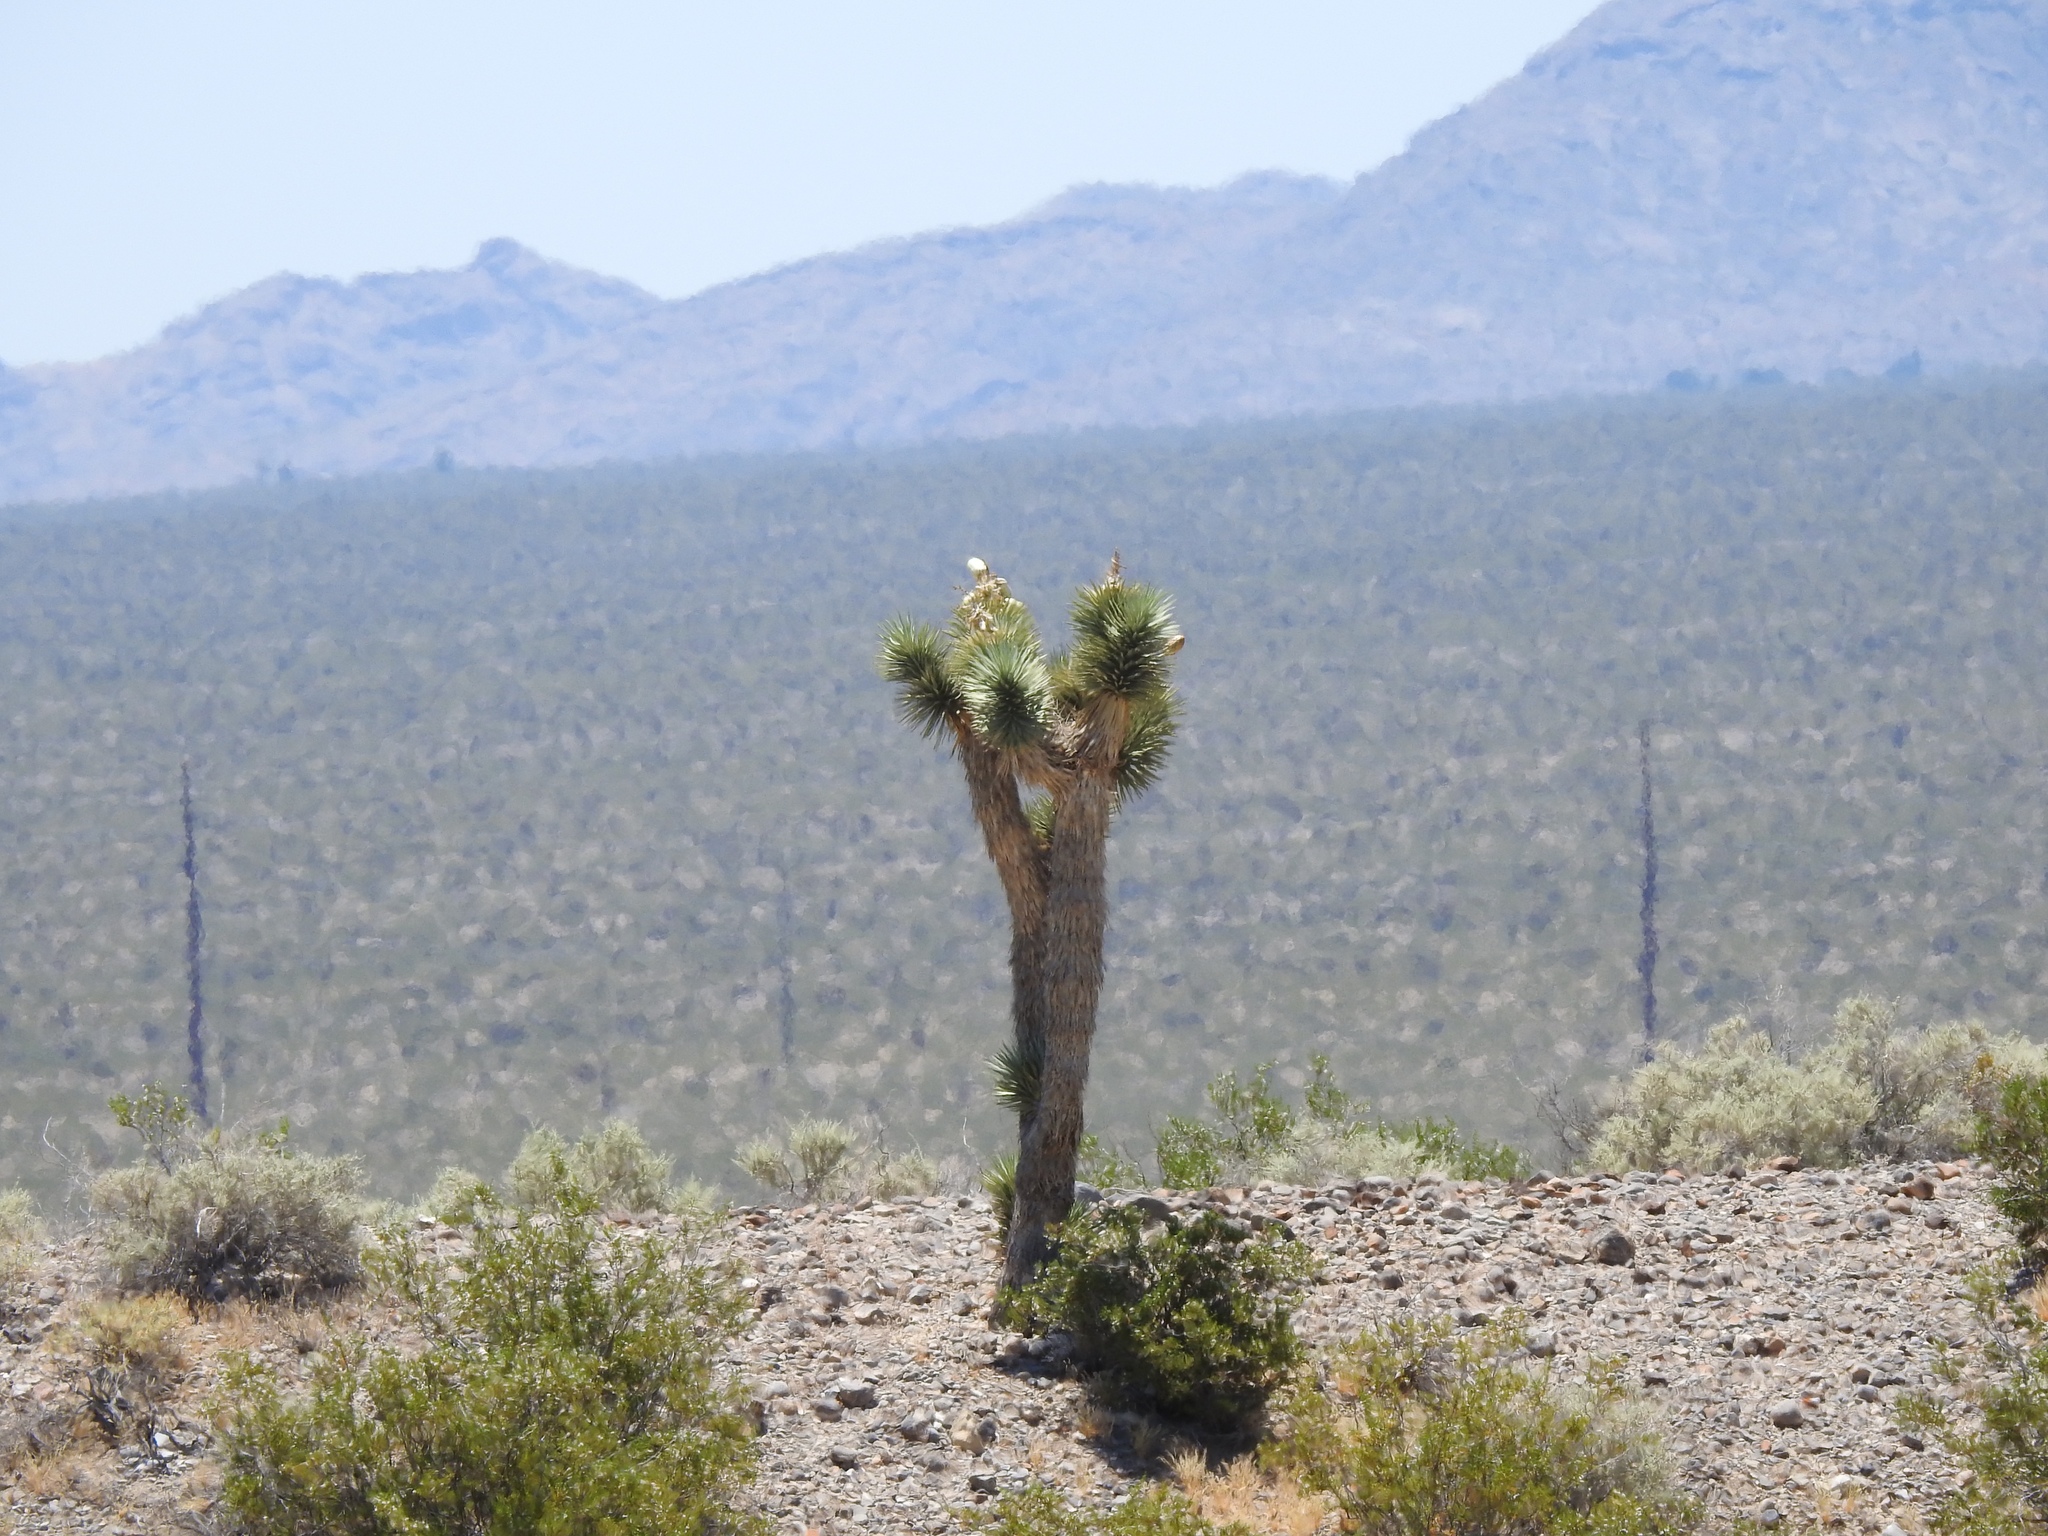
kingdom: Plantae
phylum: Tracheophyta
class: Liliopsida
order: Asparagales
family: Asparagaceae
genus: Yucca
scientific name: Yucca brevifolia
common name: Joshua tree
